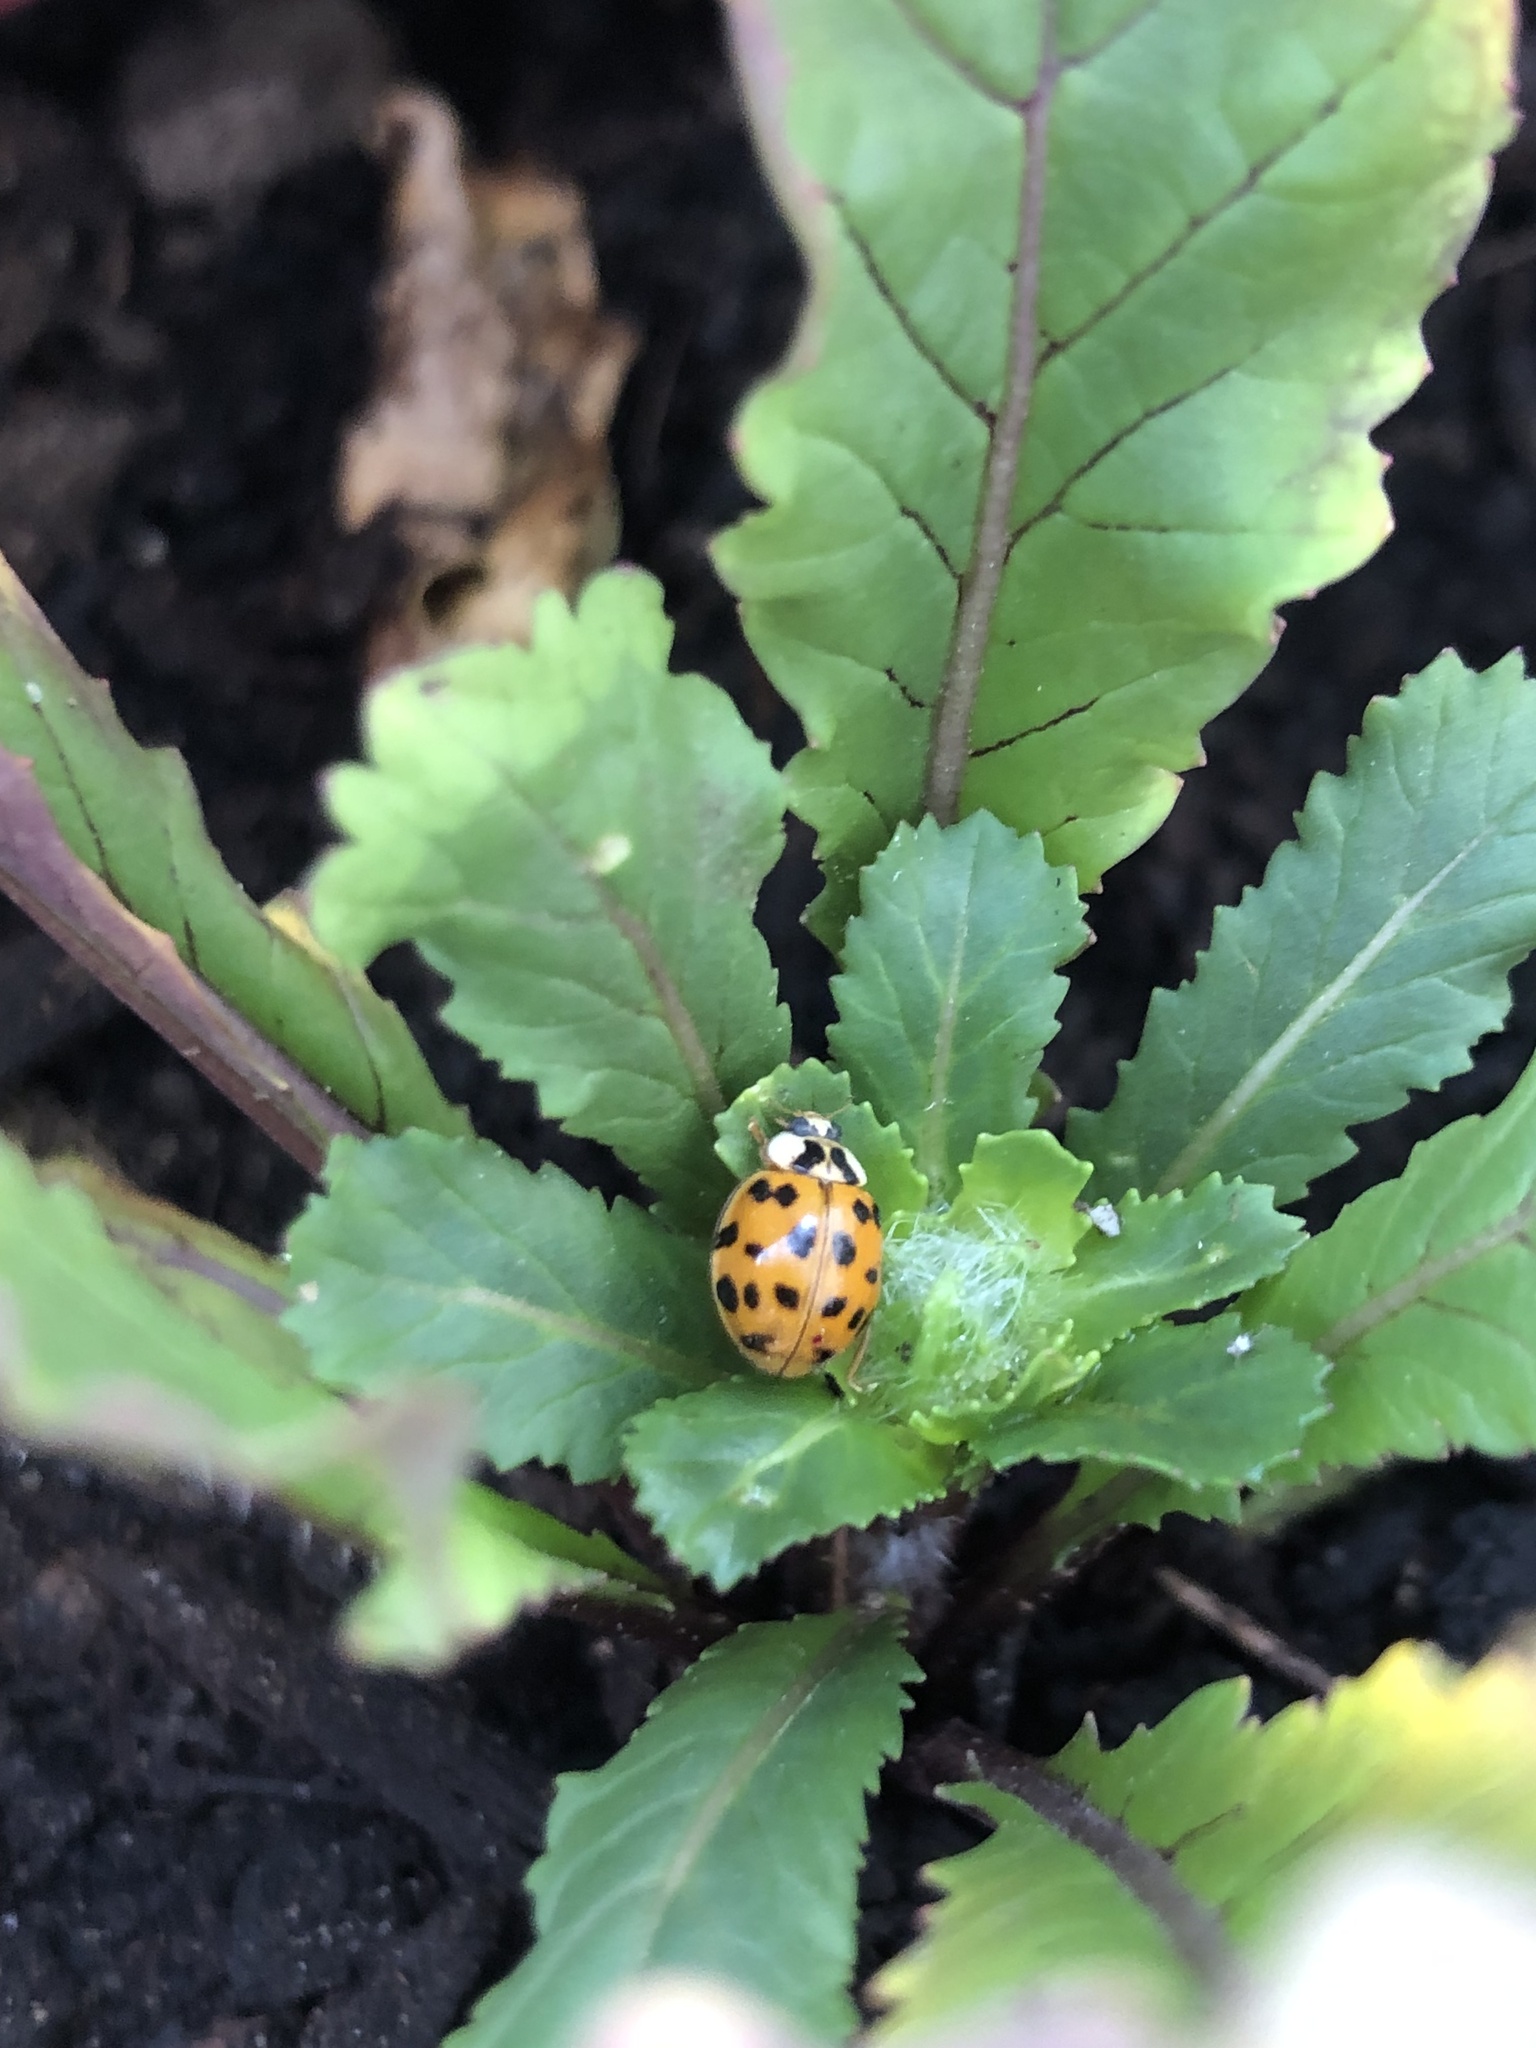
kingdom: Animalia
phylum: Arthropoda
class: Insecta
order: Coleoptera
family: Coccinellidae
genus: Harmonia
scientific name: Harmonia axyridis
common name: Harlequin ladybird
